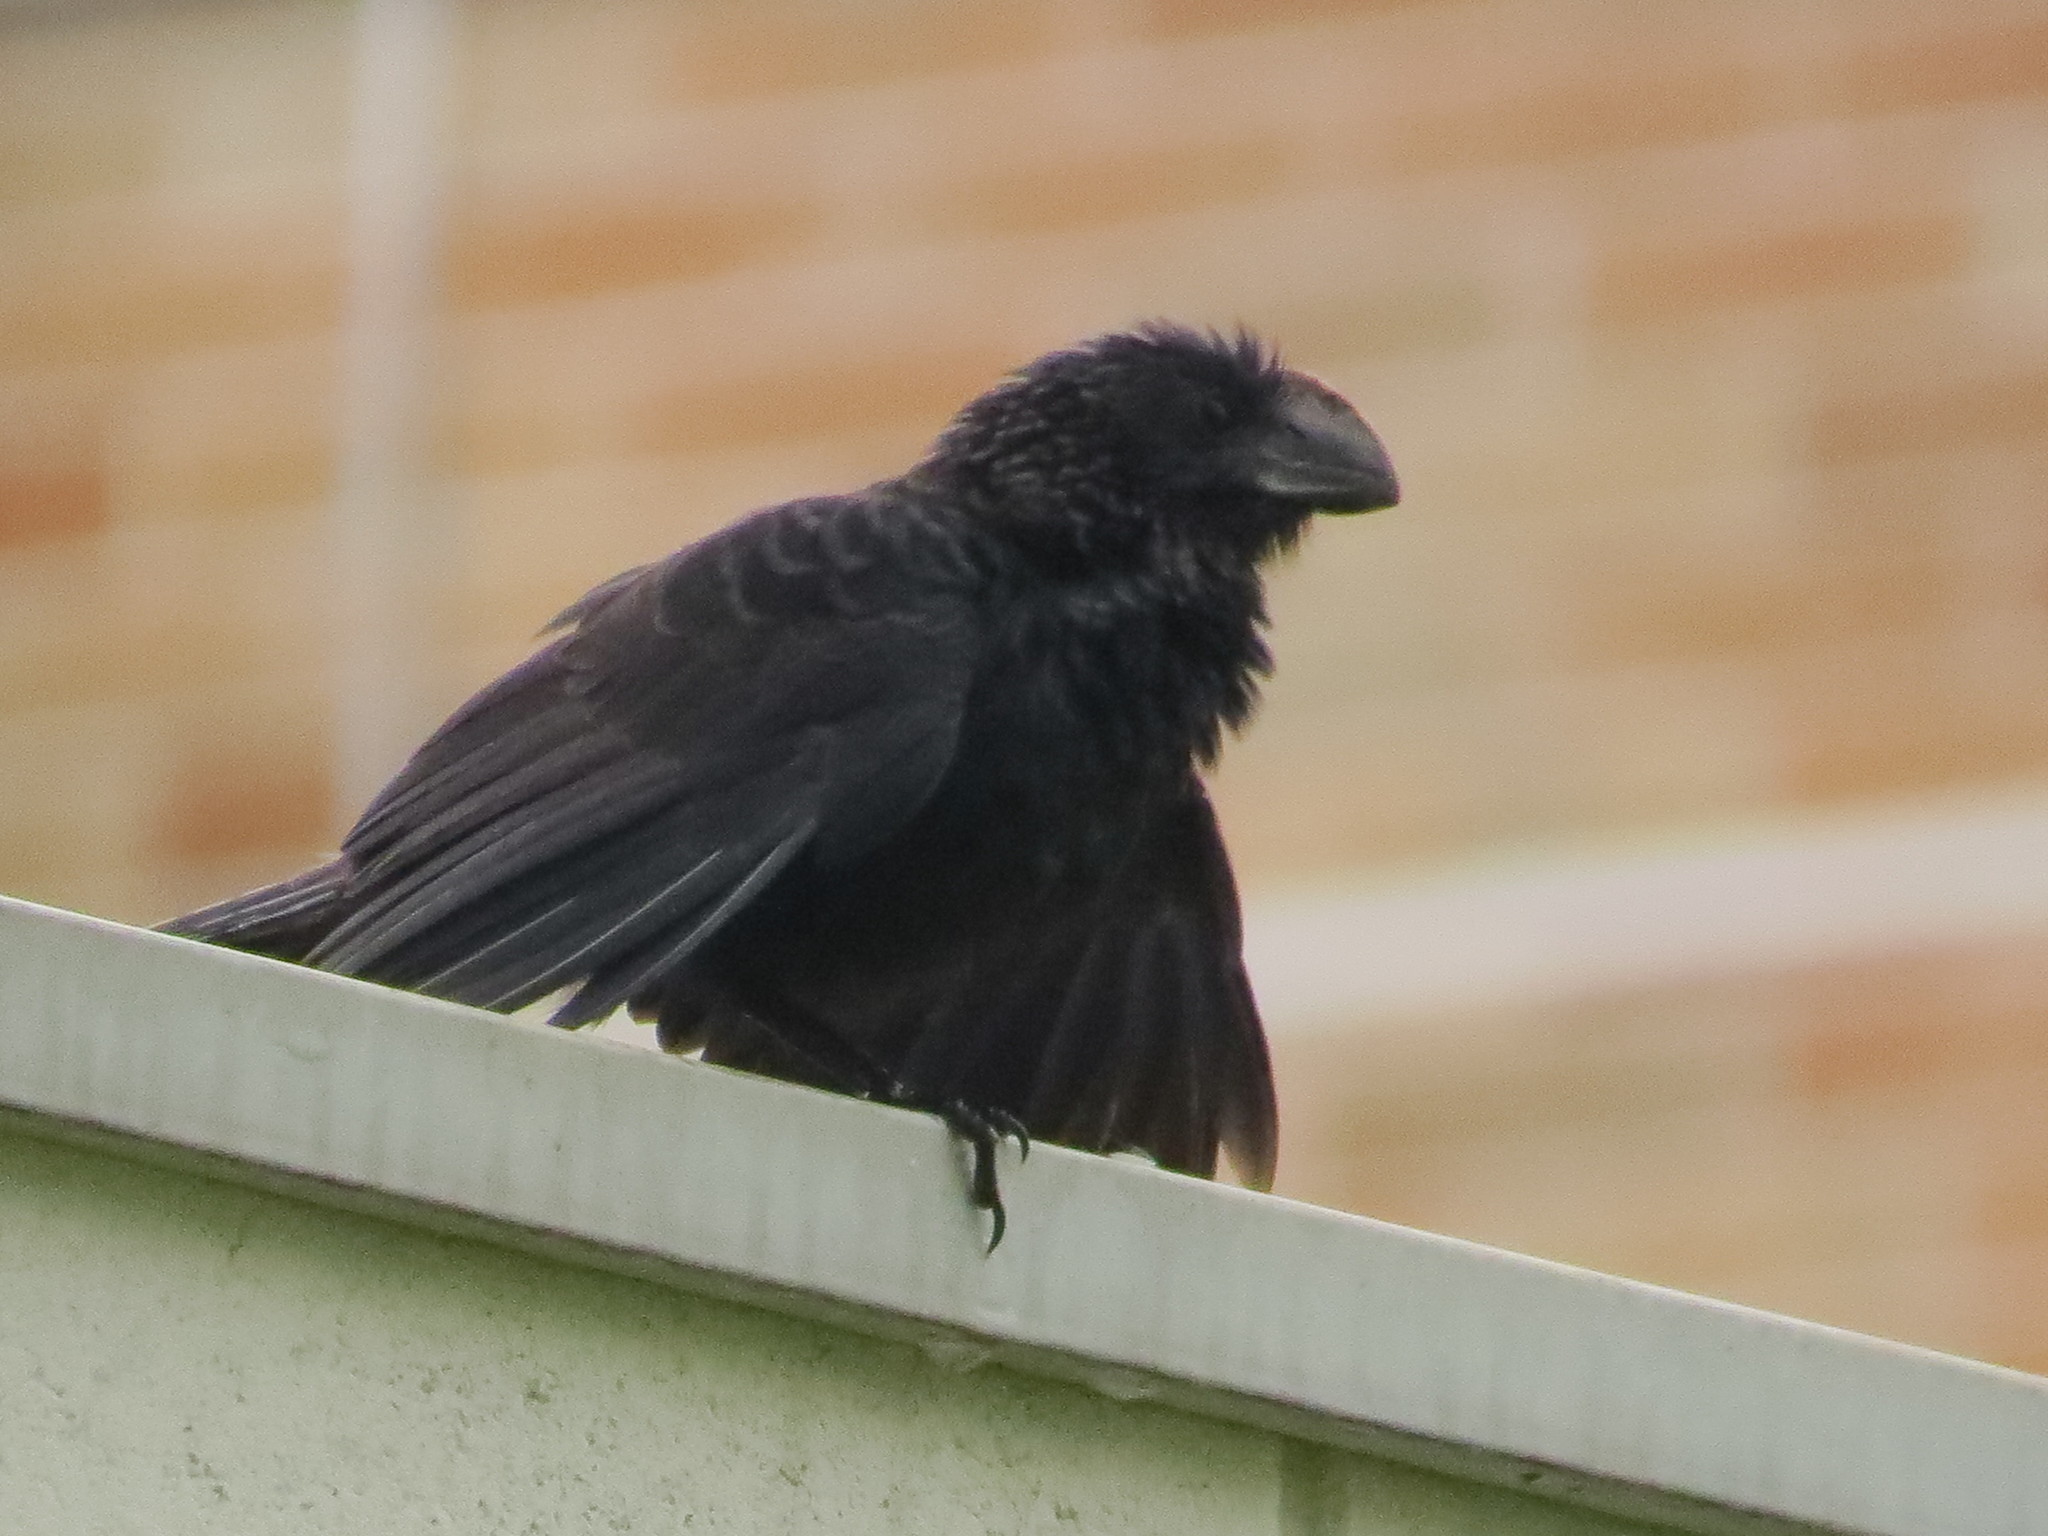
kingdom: Animalia
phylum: Chordata
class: Aves
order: Cuculiformes
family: Cuculidae
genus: Crotophaga
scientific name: Crotophaga ani
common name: Smooth-billed ani
